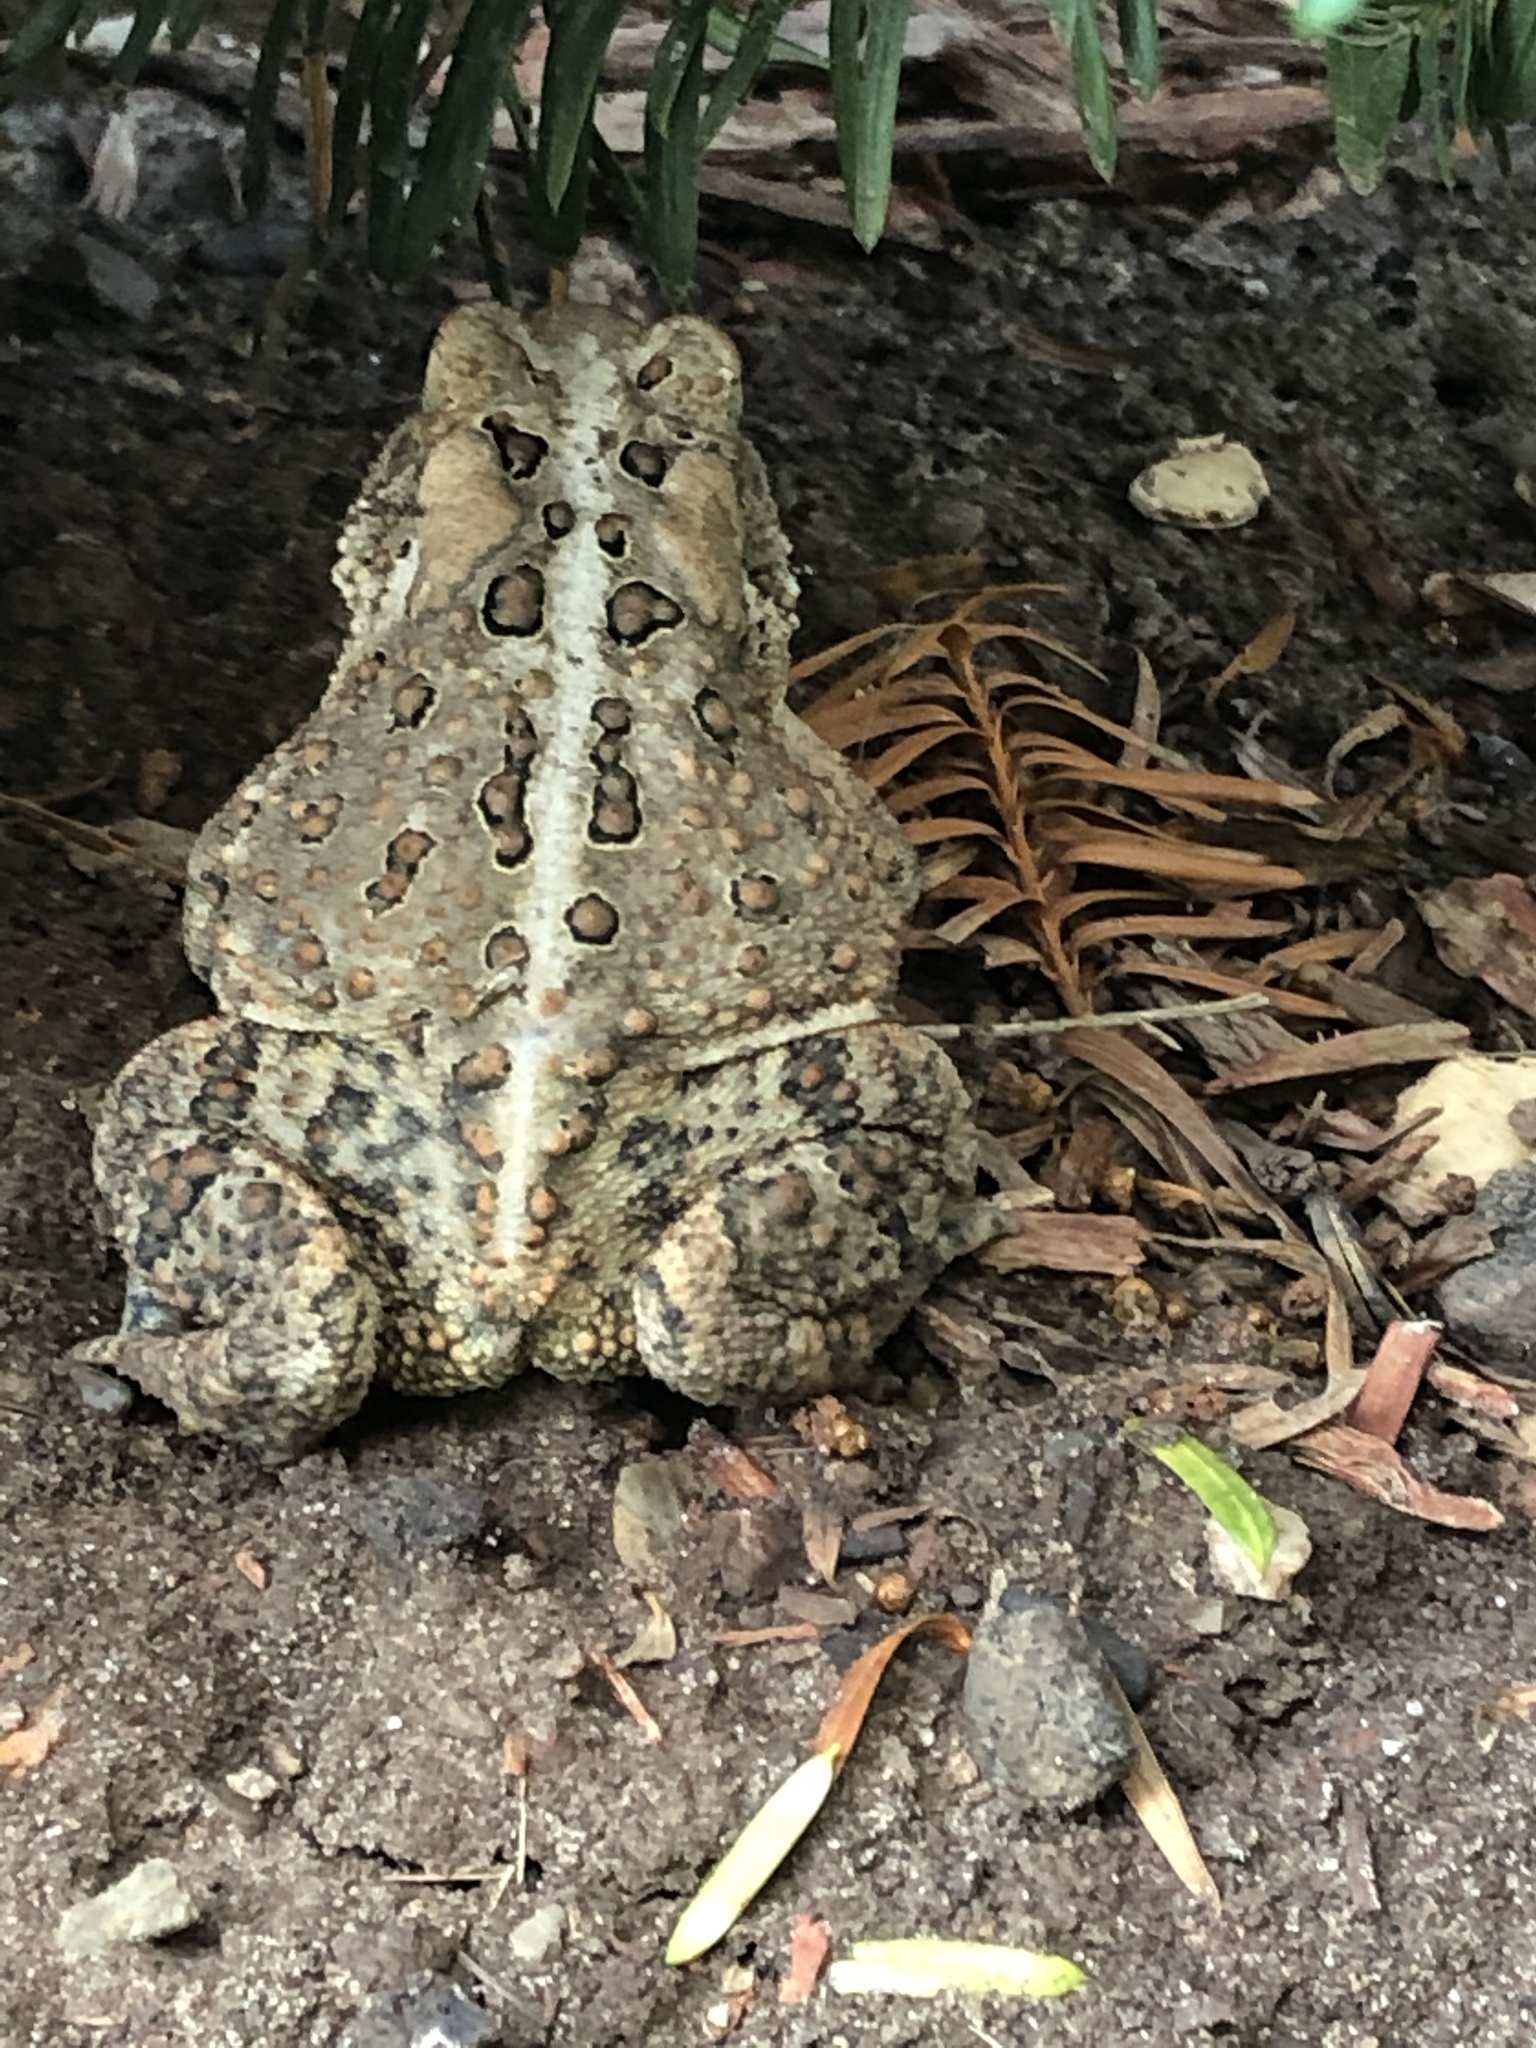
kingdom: Animalia
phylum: Chordata
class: Amphibia
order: Anura
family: Bufonidae
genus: Anaxyrus
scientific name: Anaxyrus americanus
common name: American toad
